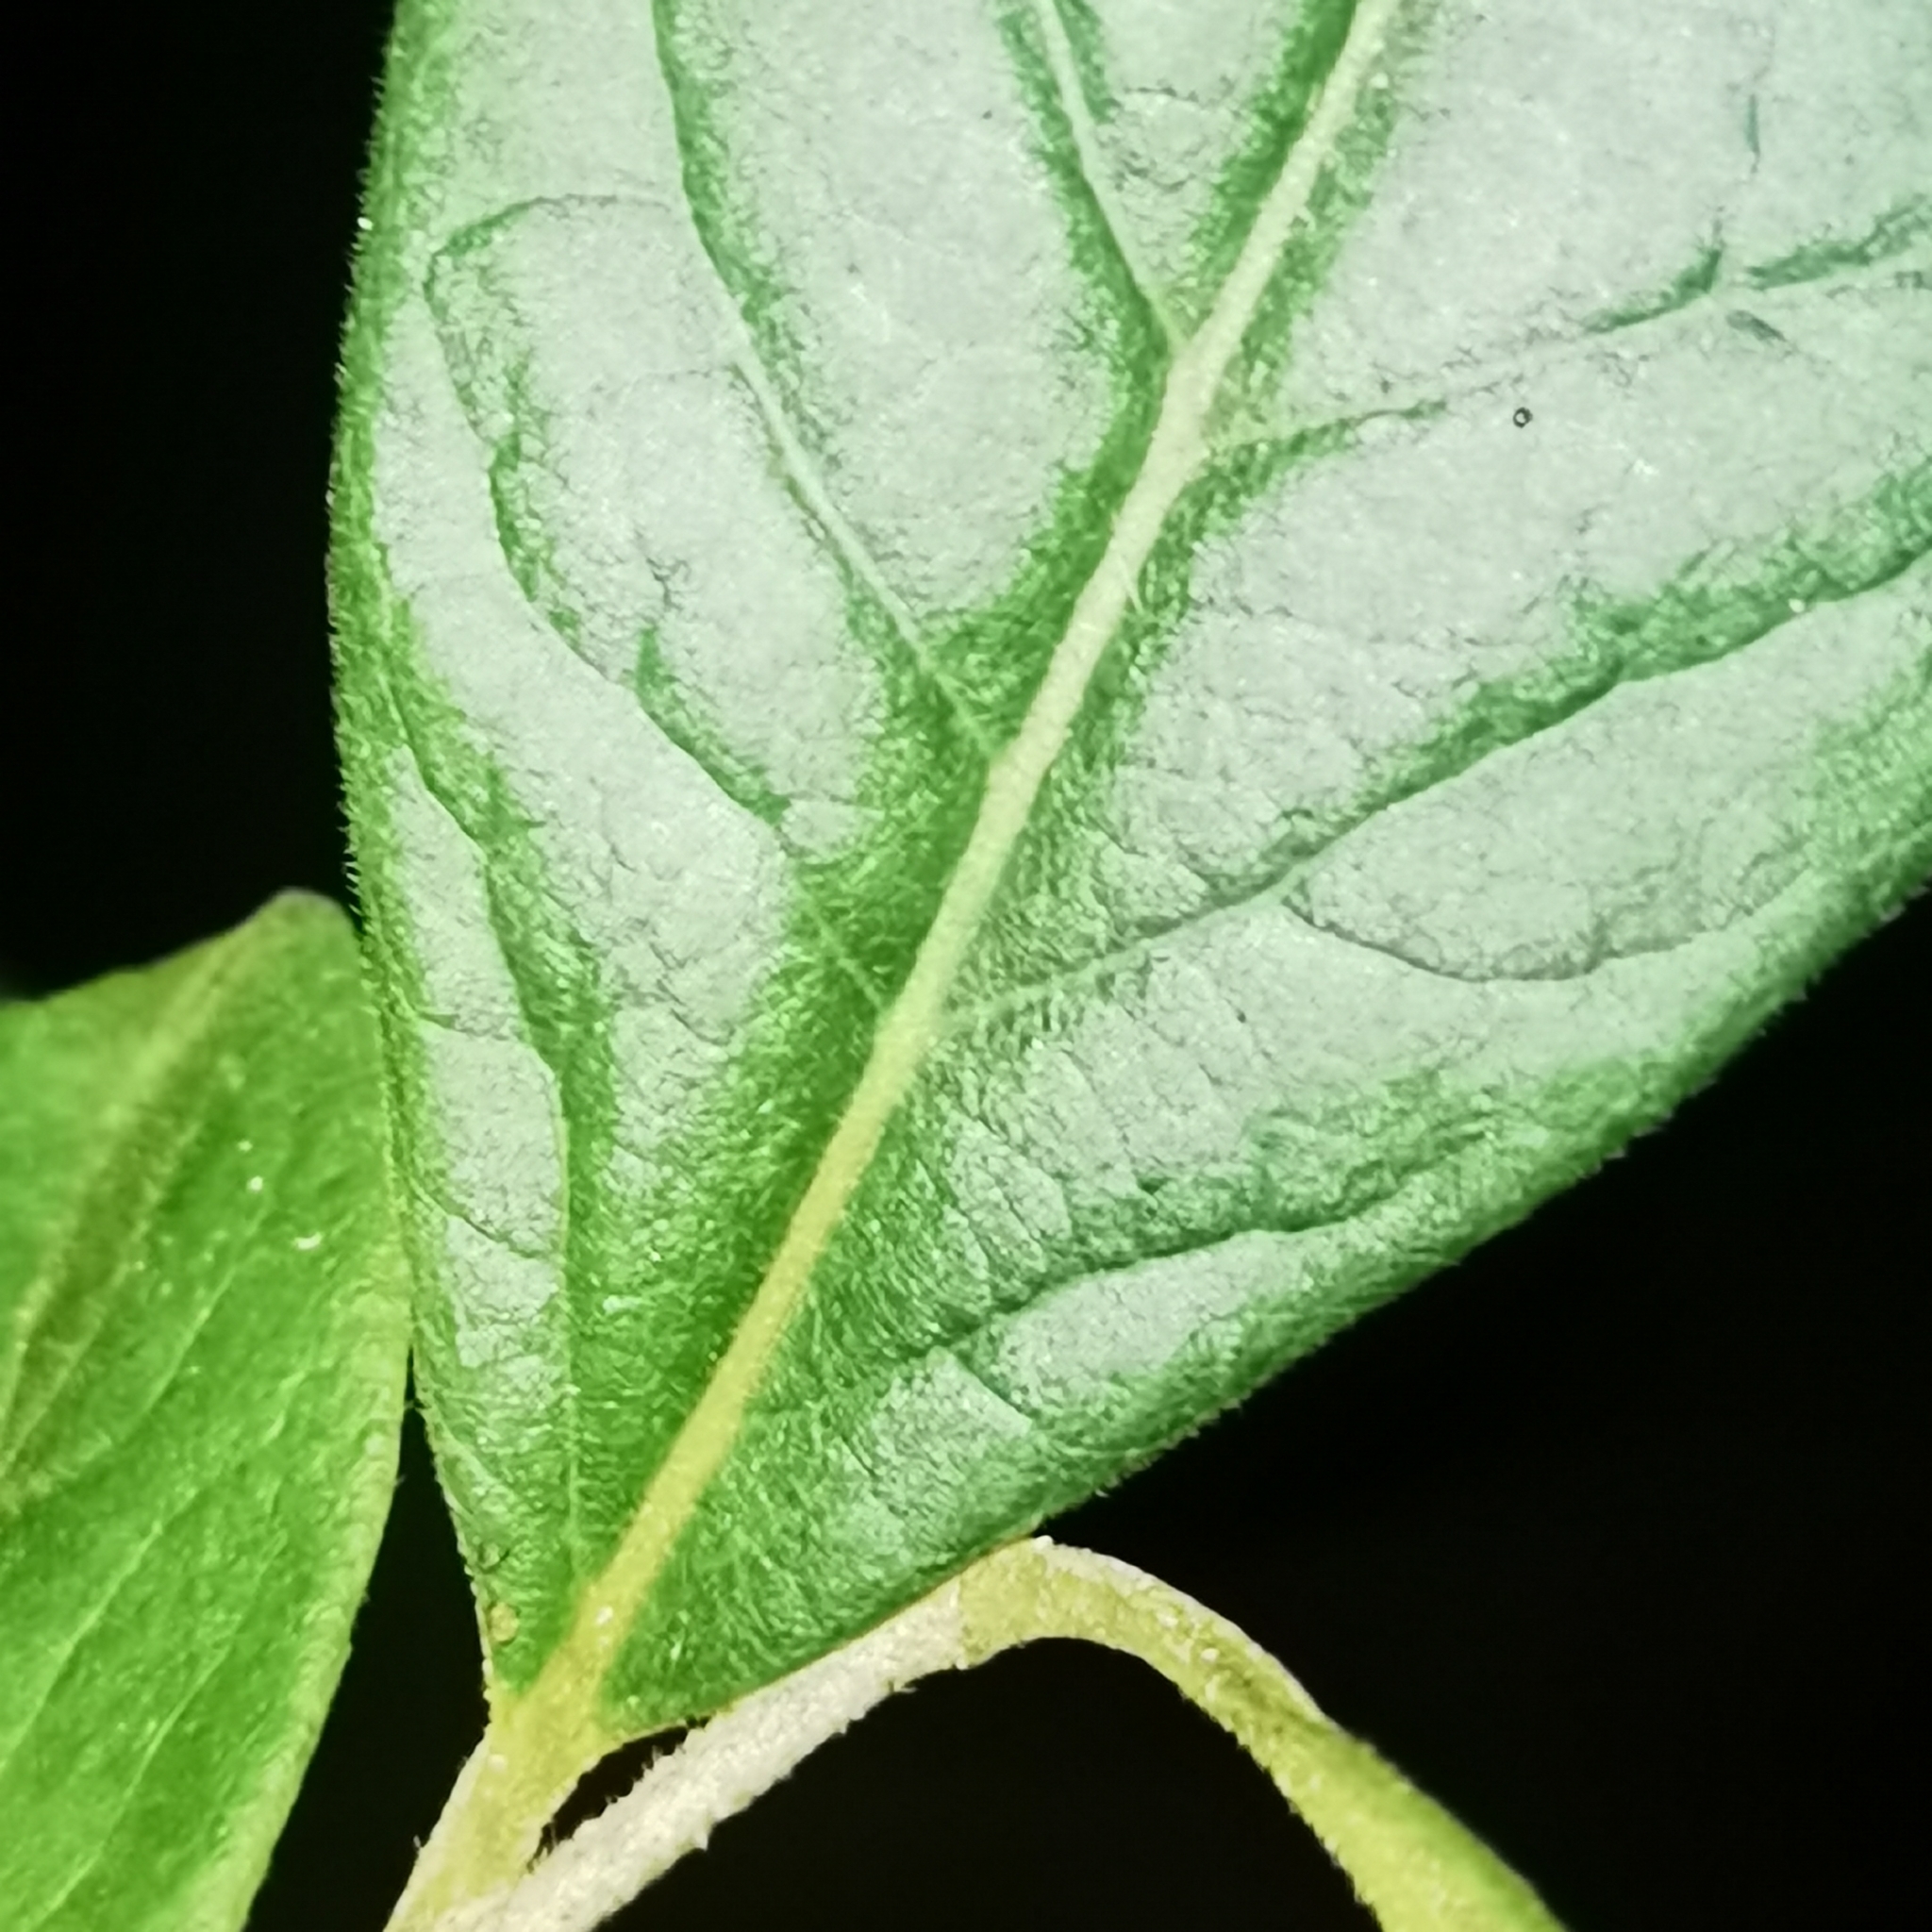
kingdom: Plantae
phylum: Tracheophyta
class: Magnoliopsida
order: Ericales
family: Ebenaceae
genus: Diospyros
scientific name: Diospyros salicifolia
